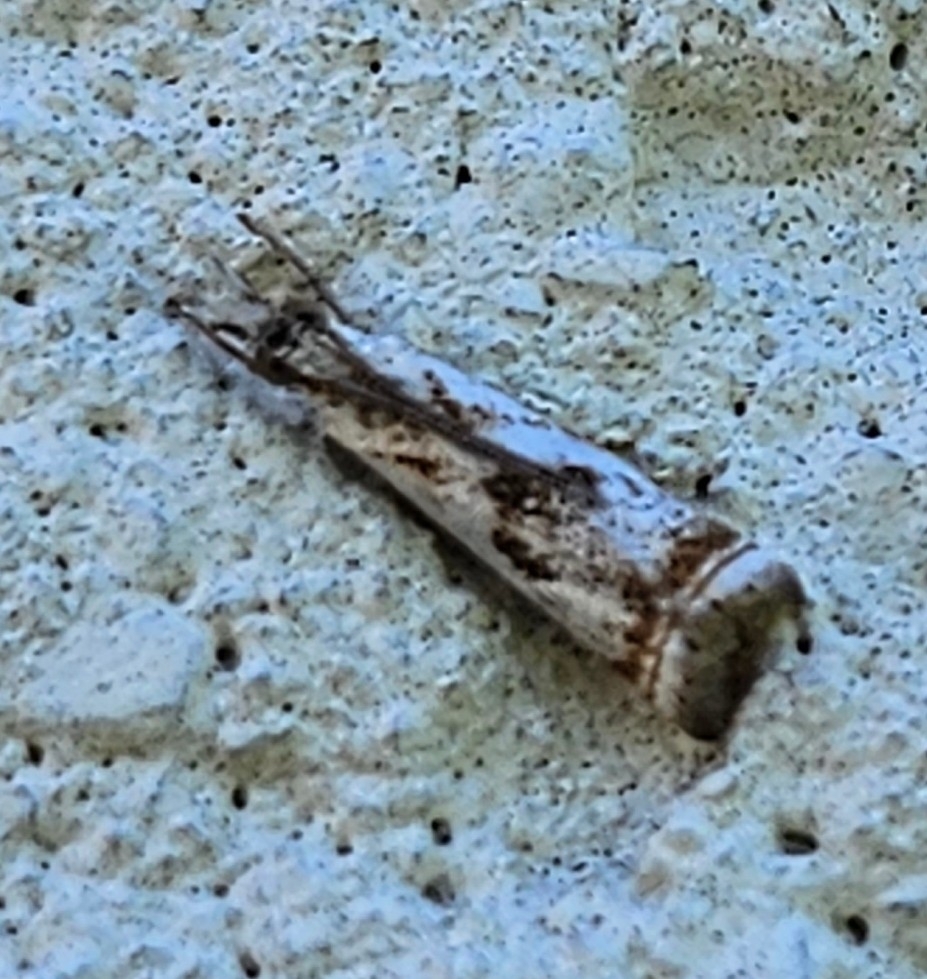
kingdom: Animalia
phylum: Arthropoda
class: Insecta
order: Lepidoptera
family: Crambidae
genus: Microcrambus
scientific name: Microcrambus elegans
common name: Elegant grass-veneer
